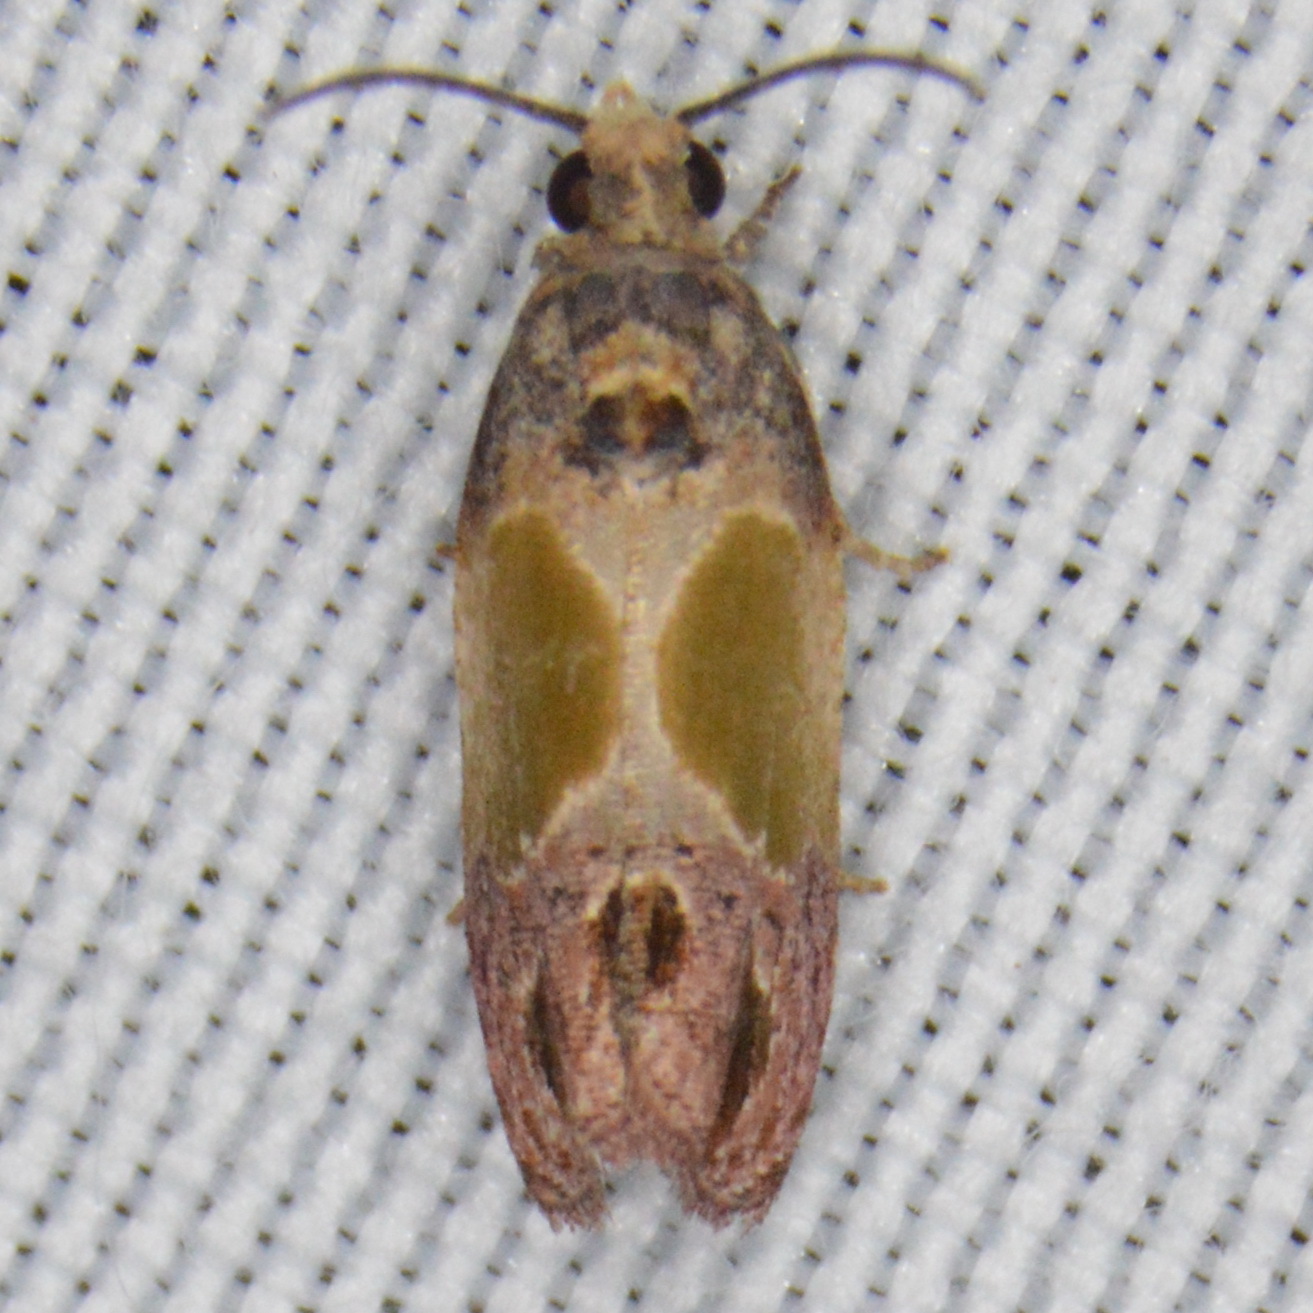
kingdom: Animalia
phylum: Arthropoda
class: Insecta
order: Lepidoptera
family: Tortricidae
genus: Eumarozia
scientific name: Eumarozia malachitana
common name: Sculptured moth
